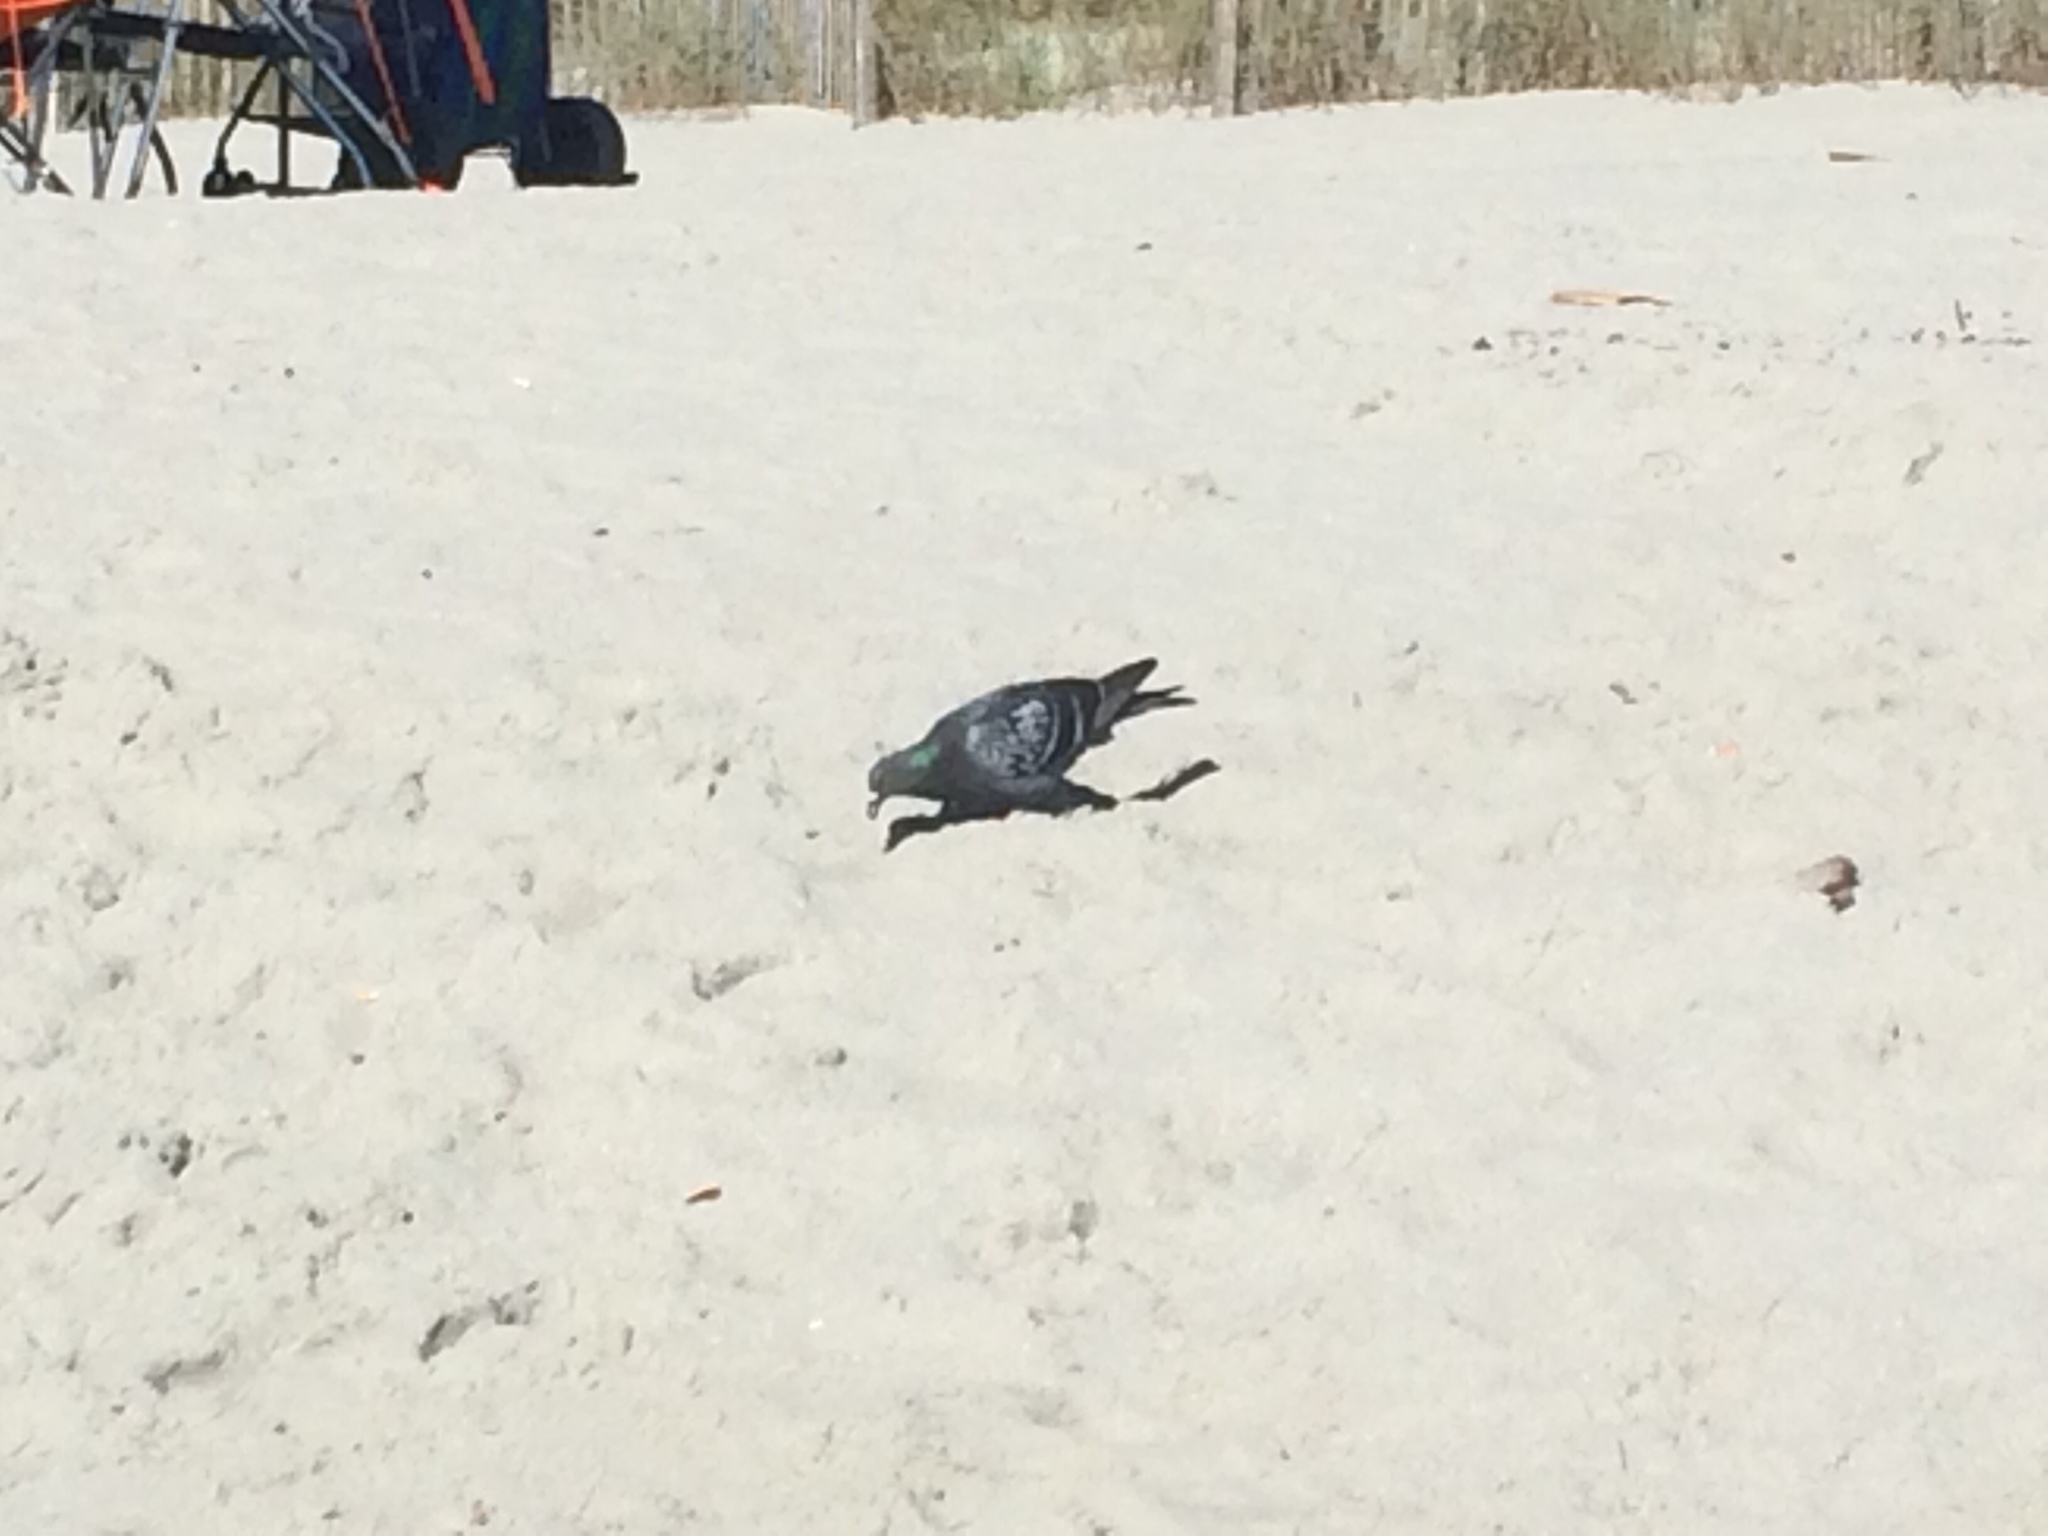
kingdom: Animalia
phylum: Chordata
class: Aves
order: Columbiformes
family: Columbidae
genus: Columba
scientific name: Columba livia
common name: Rock pigeon
